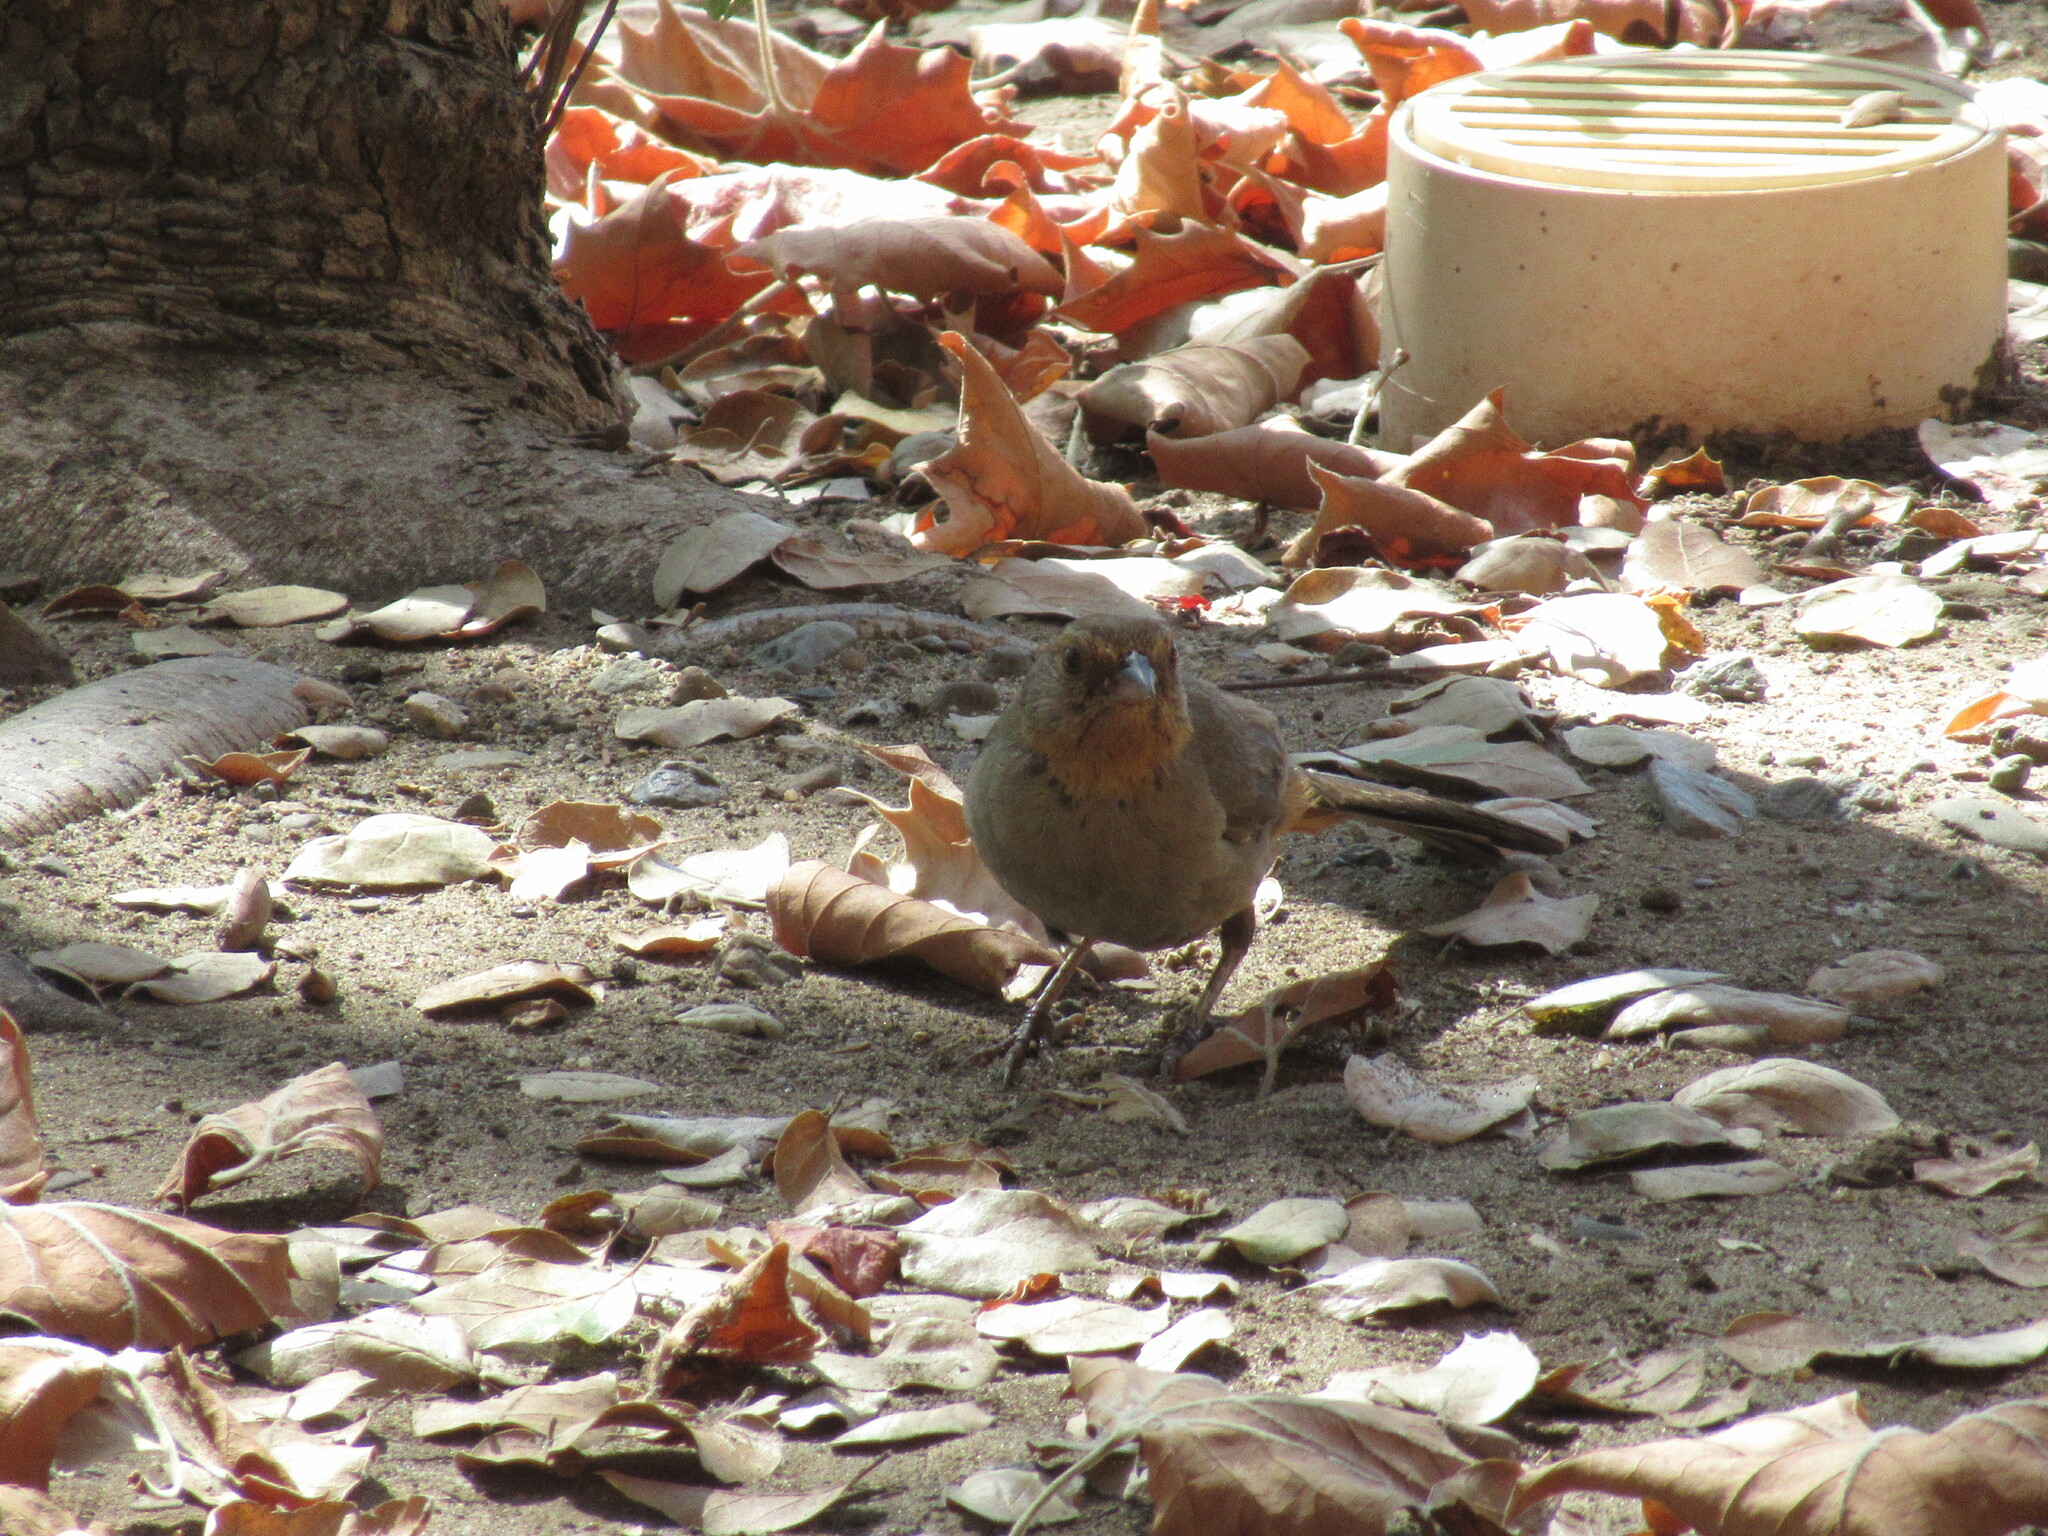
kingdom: Animalia
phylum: Chordata
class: Aves
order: Passeriformes
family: Passerellidae
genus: Melozone
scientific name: Melozone crissalis
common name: California towhee
